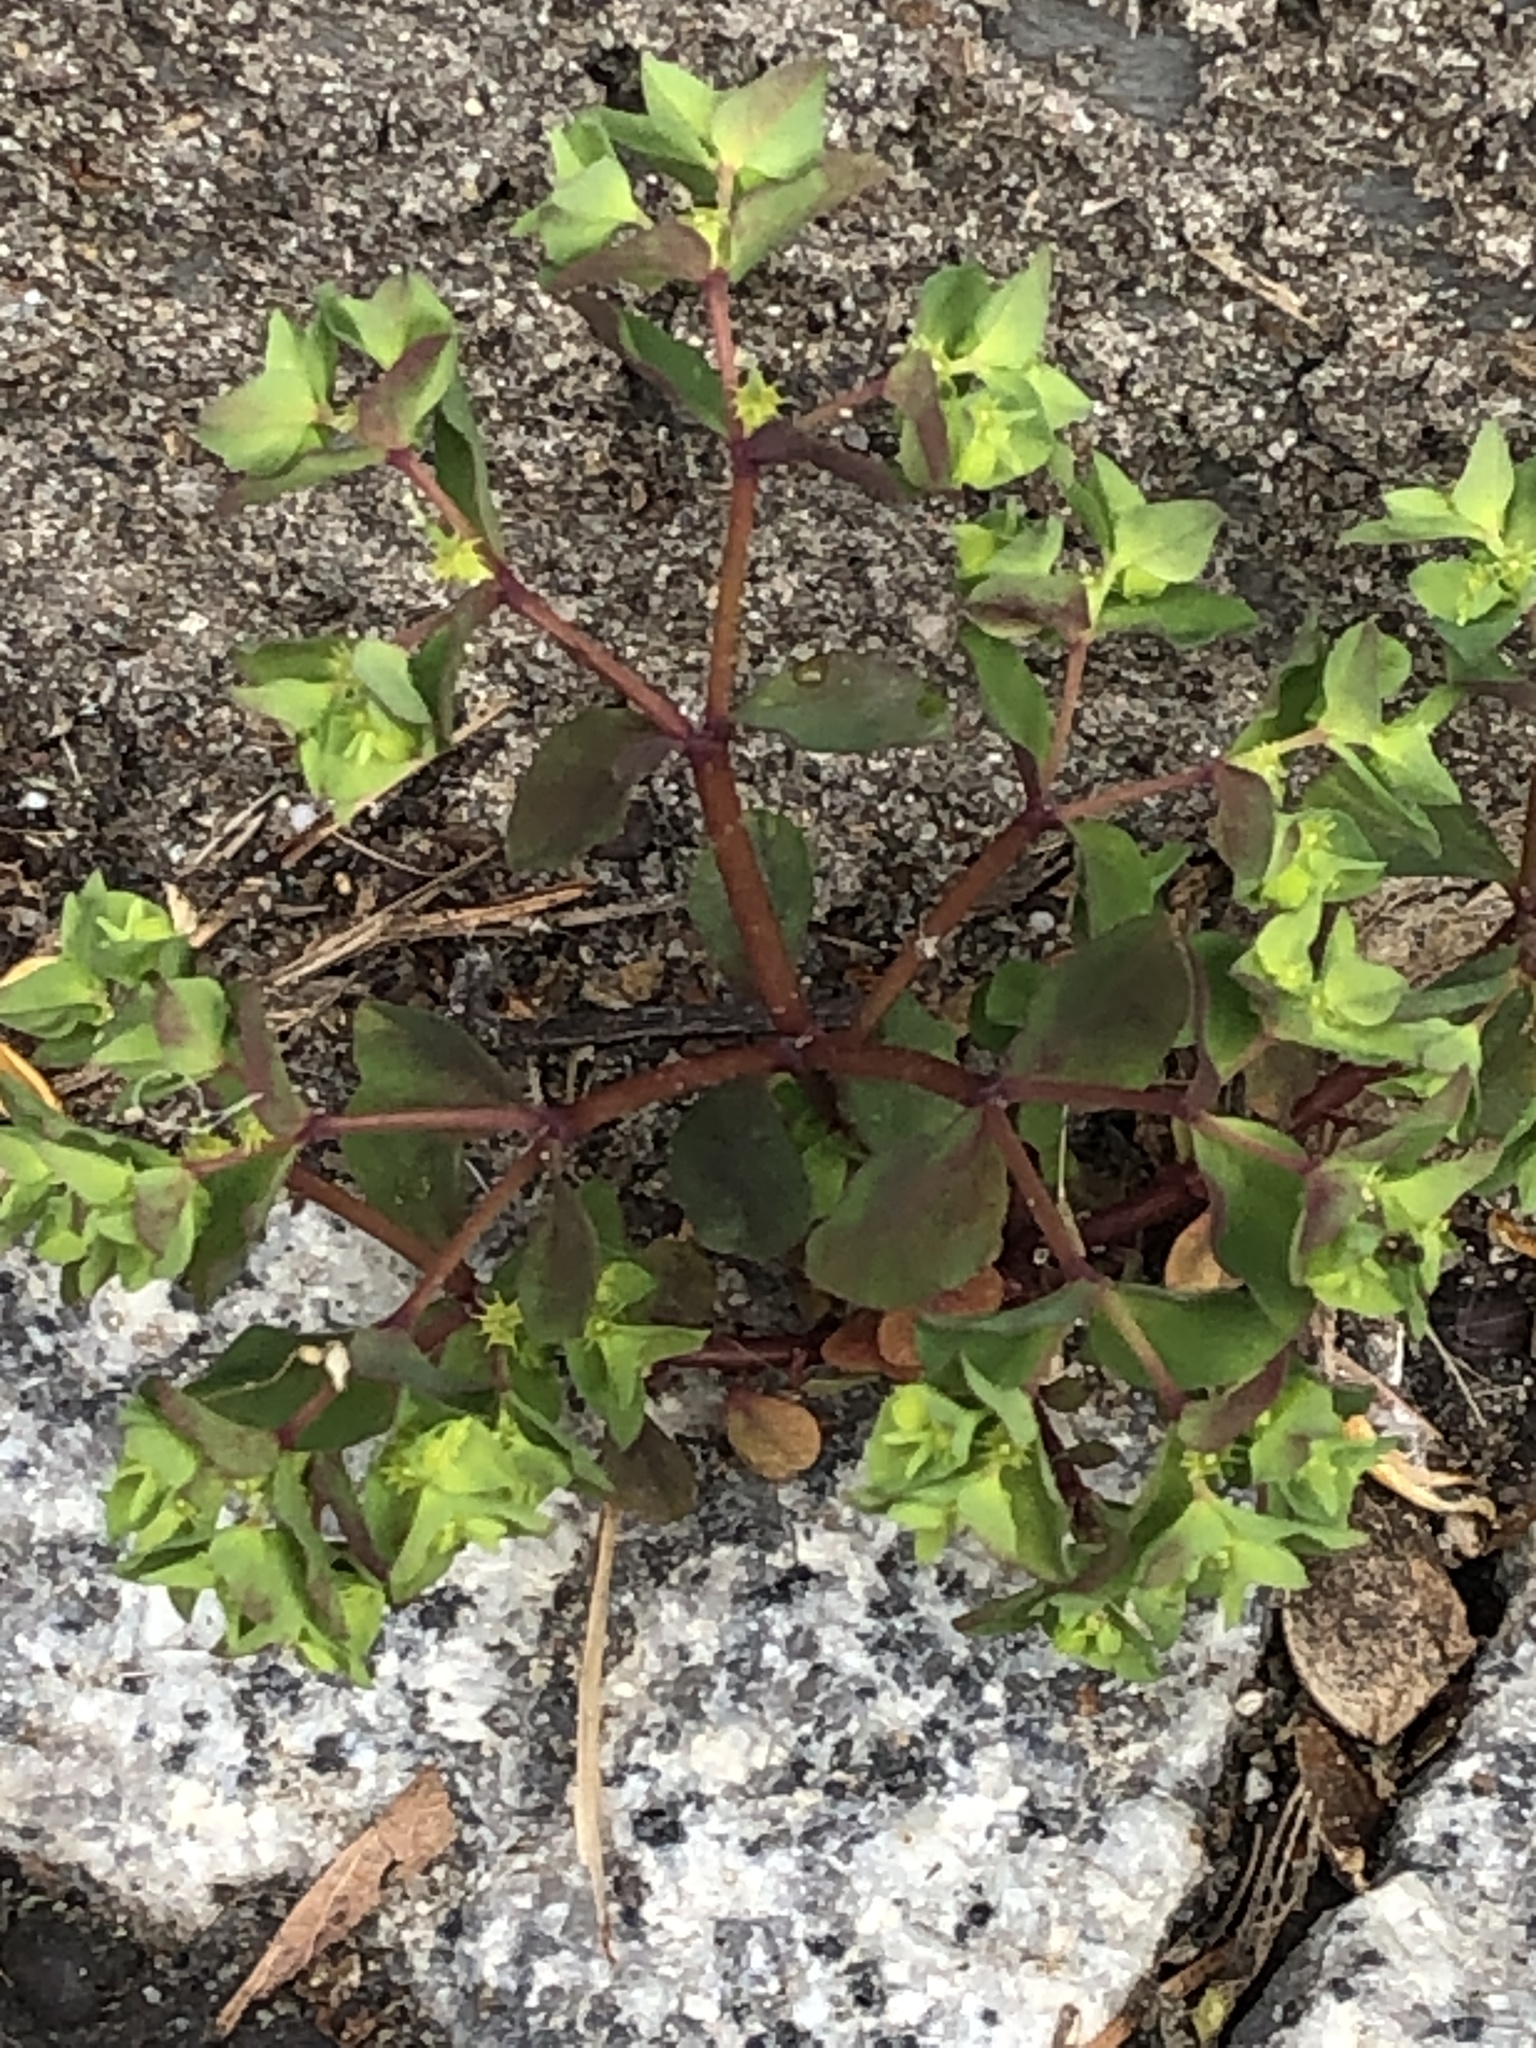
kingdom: Plantae
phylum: Tracheophyta
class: Magnoliopsida
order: Malpighiales
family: Euphorbiaceae
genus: Euphorbia
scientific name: Euphorbia peplus
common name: Petty spurge
